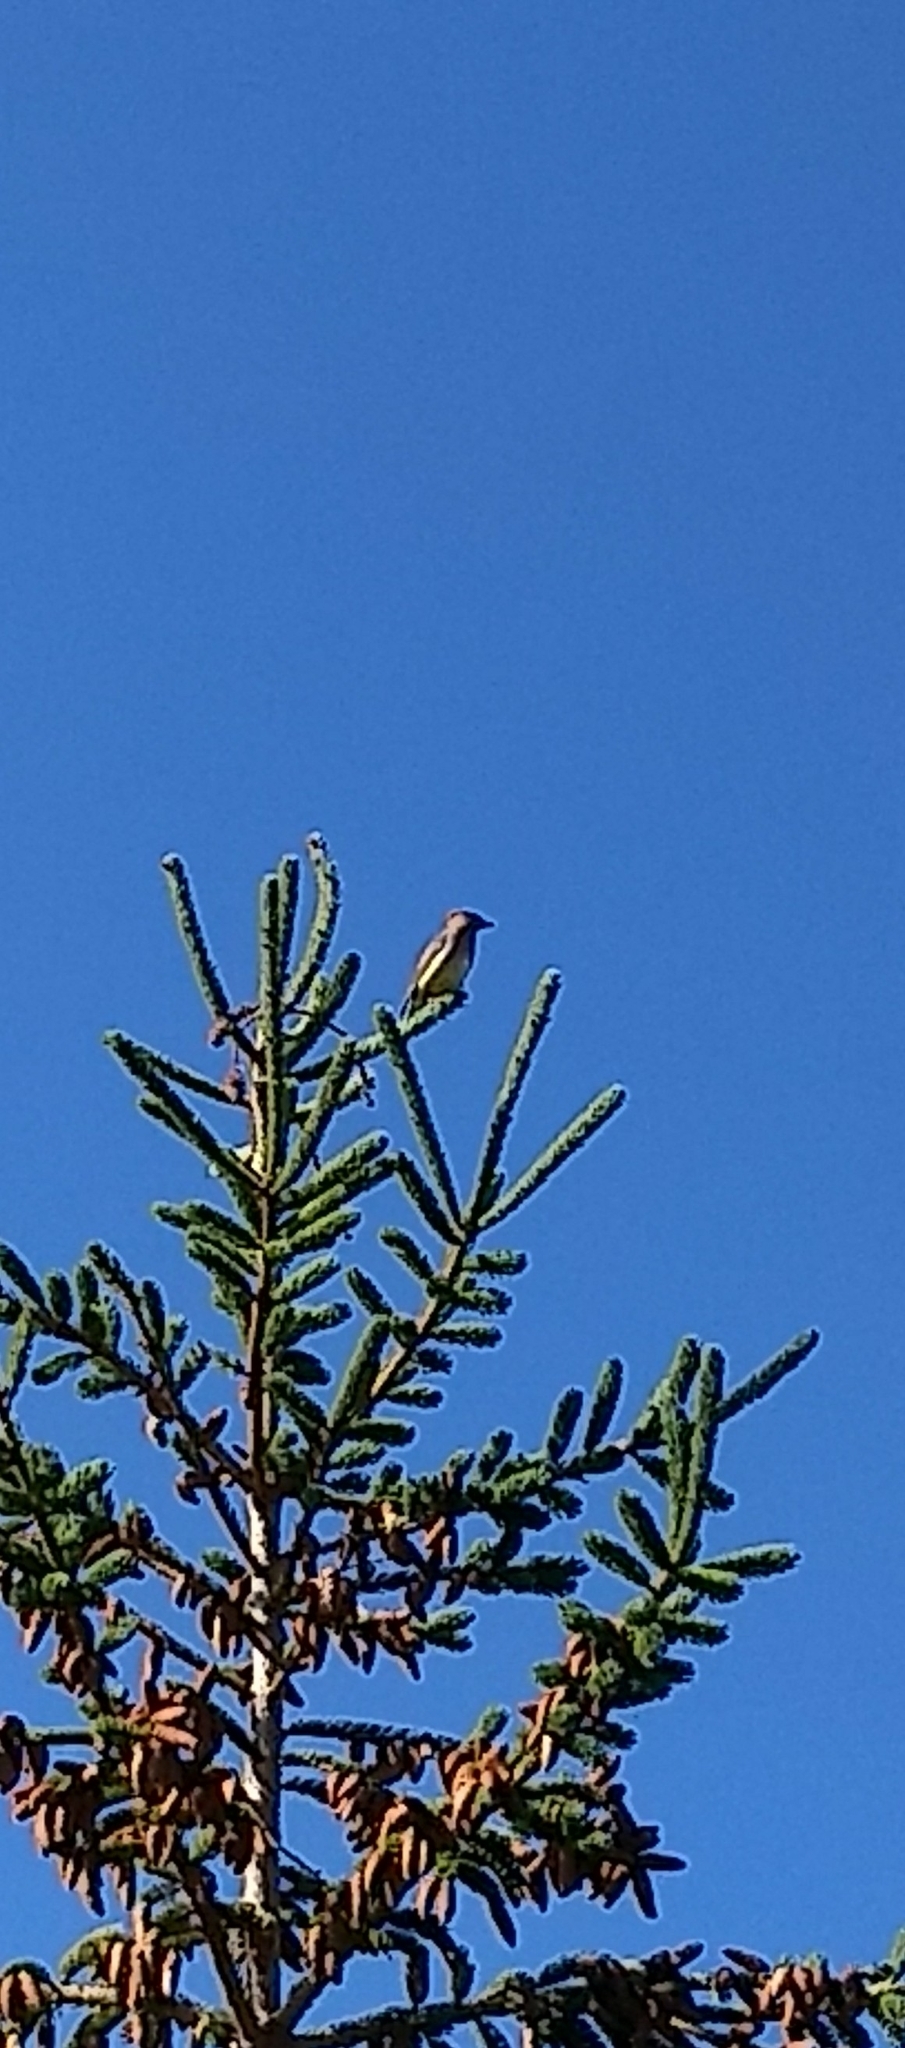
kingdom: Animalia
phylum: Chordata
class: Aves
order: Passeriformes
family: Bombycillidae
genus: Bombycilla
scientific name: Bombycilla cedrorum
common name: Cedar waxwing
